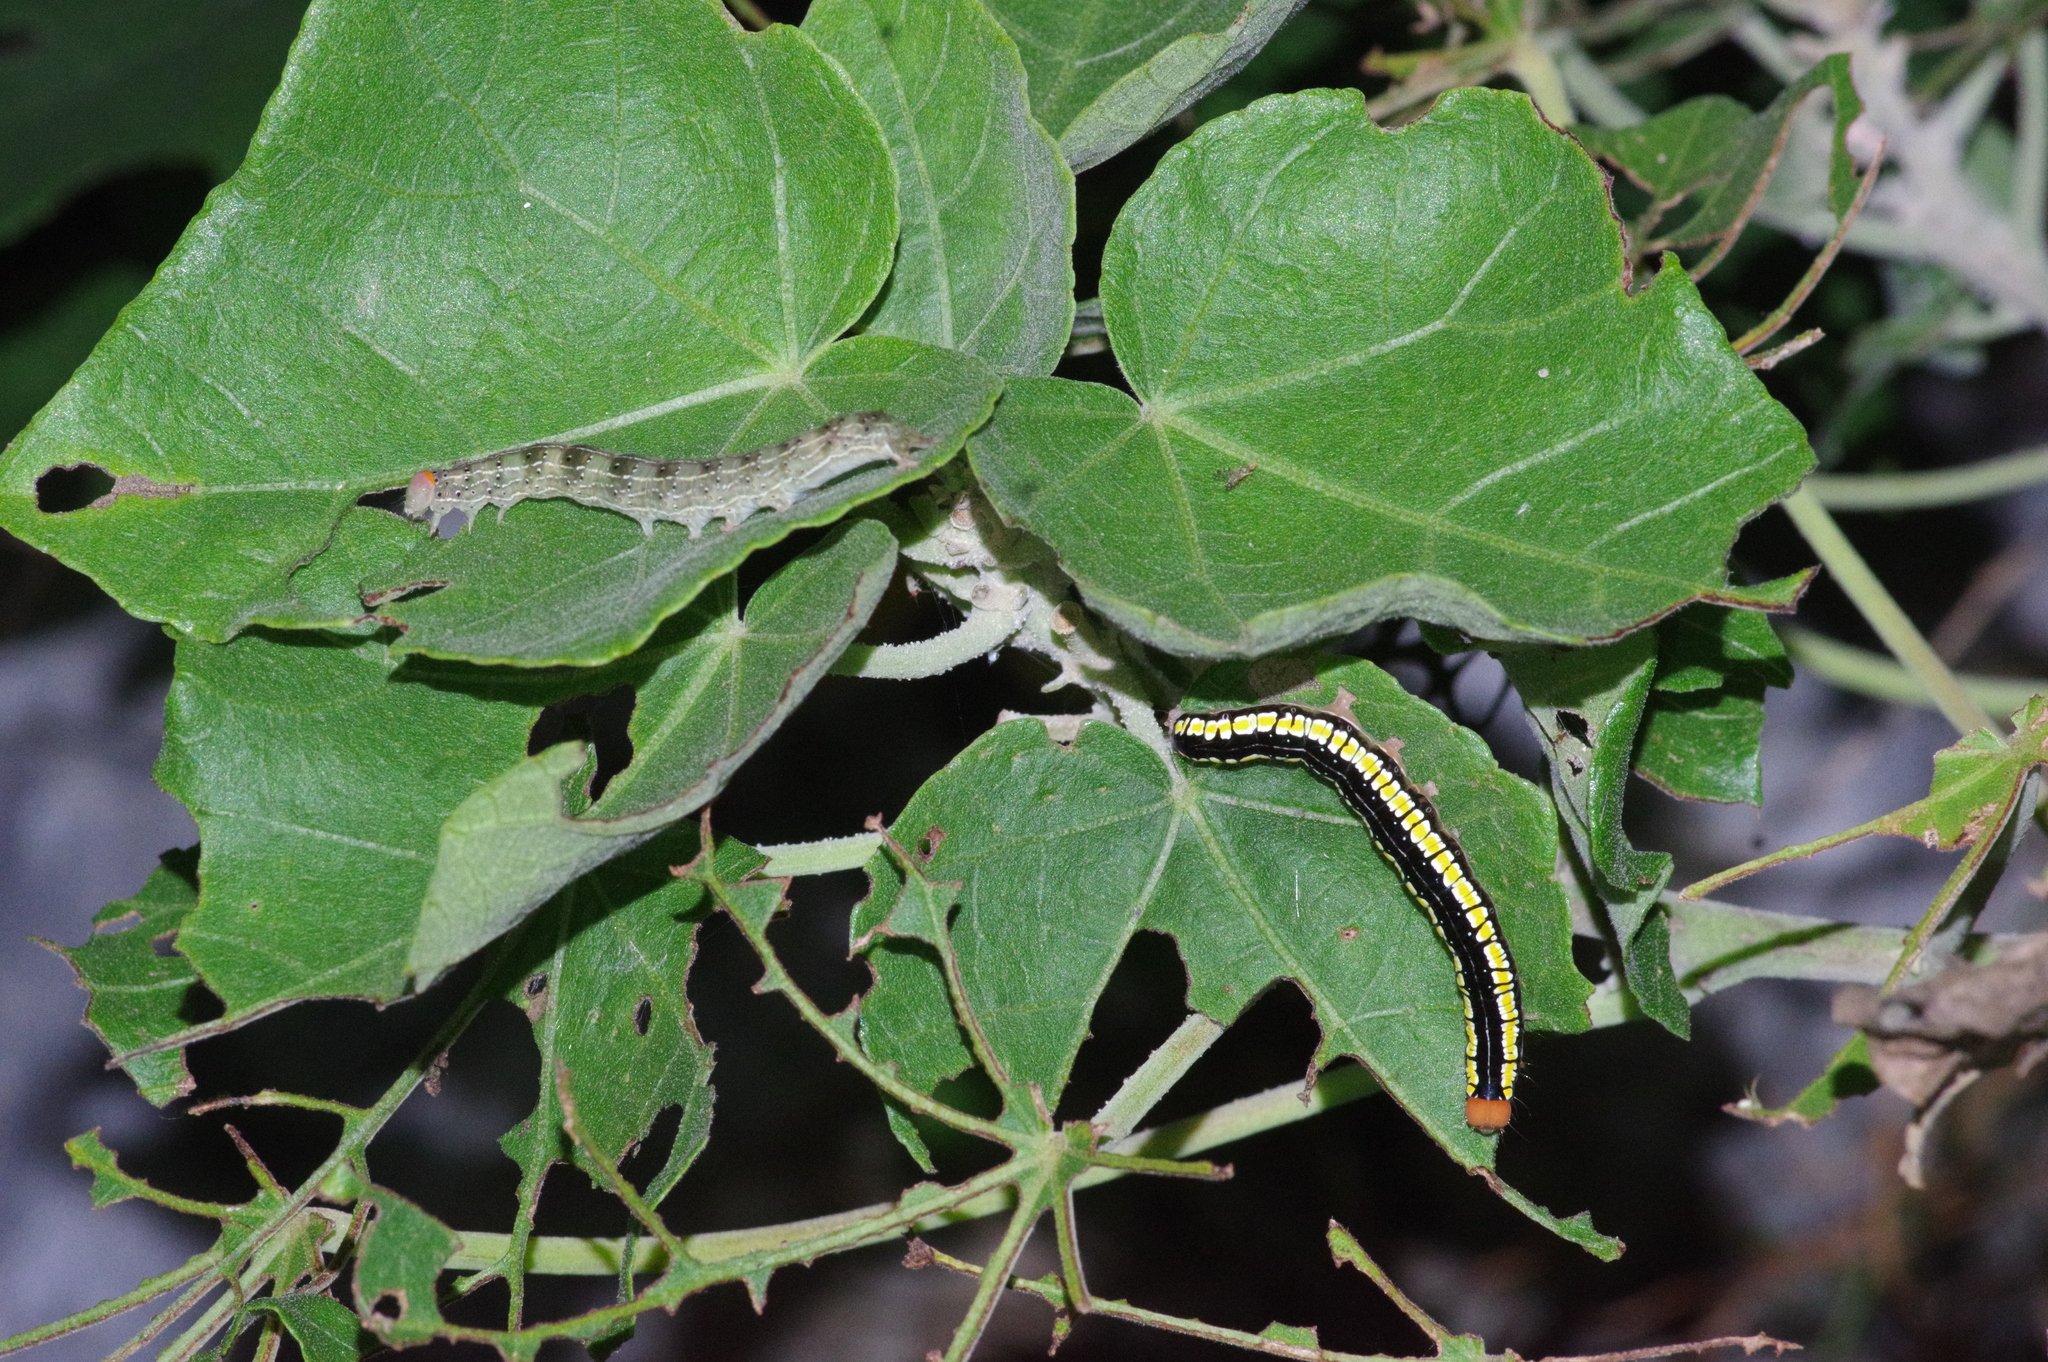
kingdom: Animalia
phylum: Arthropoda
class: Insecta
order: Lepidoptera
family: Erebidae
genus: Anomis
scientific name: Anomis fulvida
